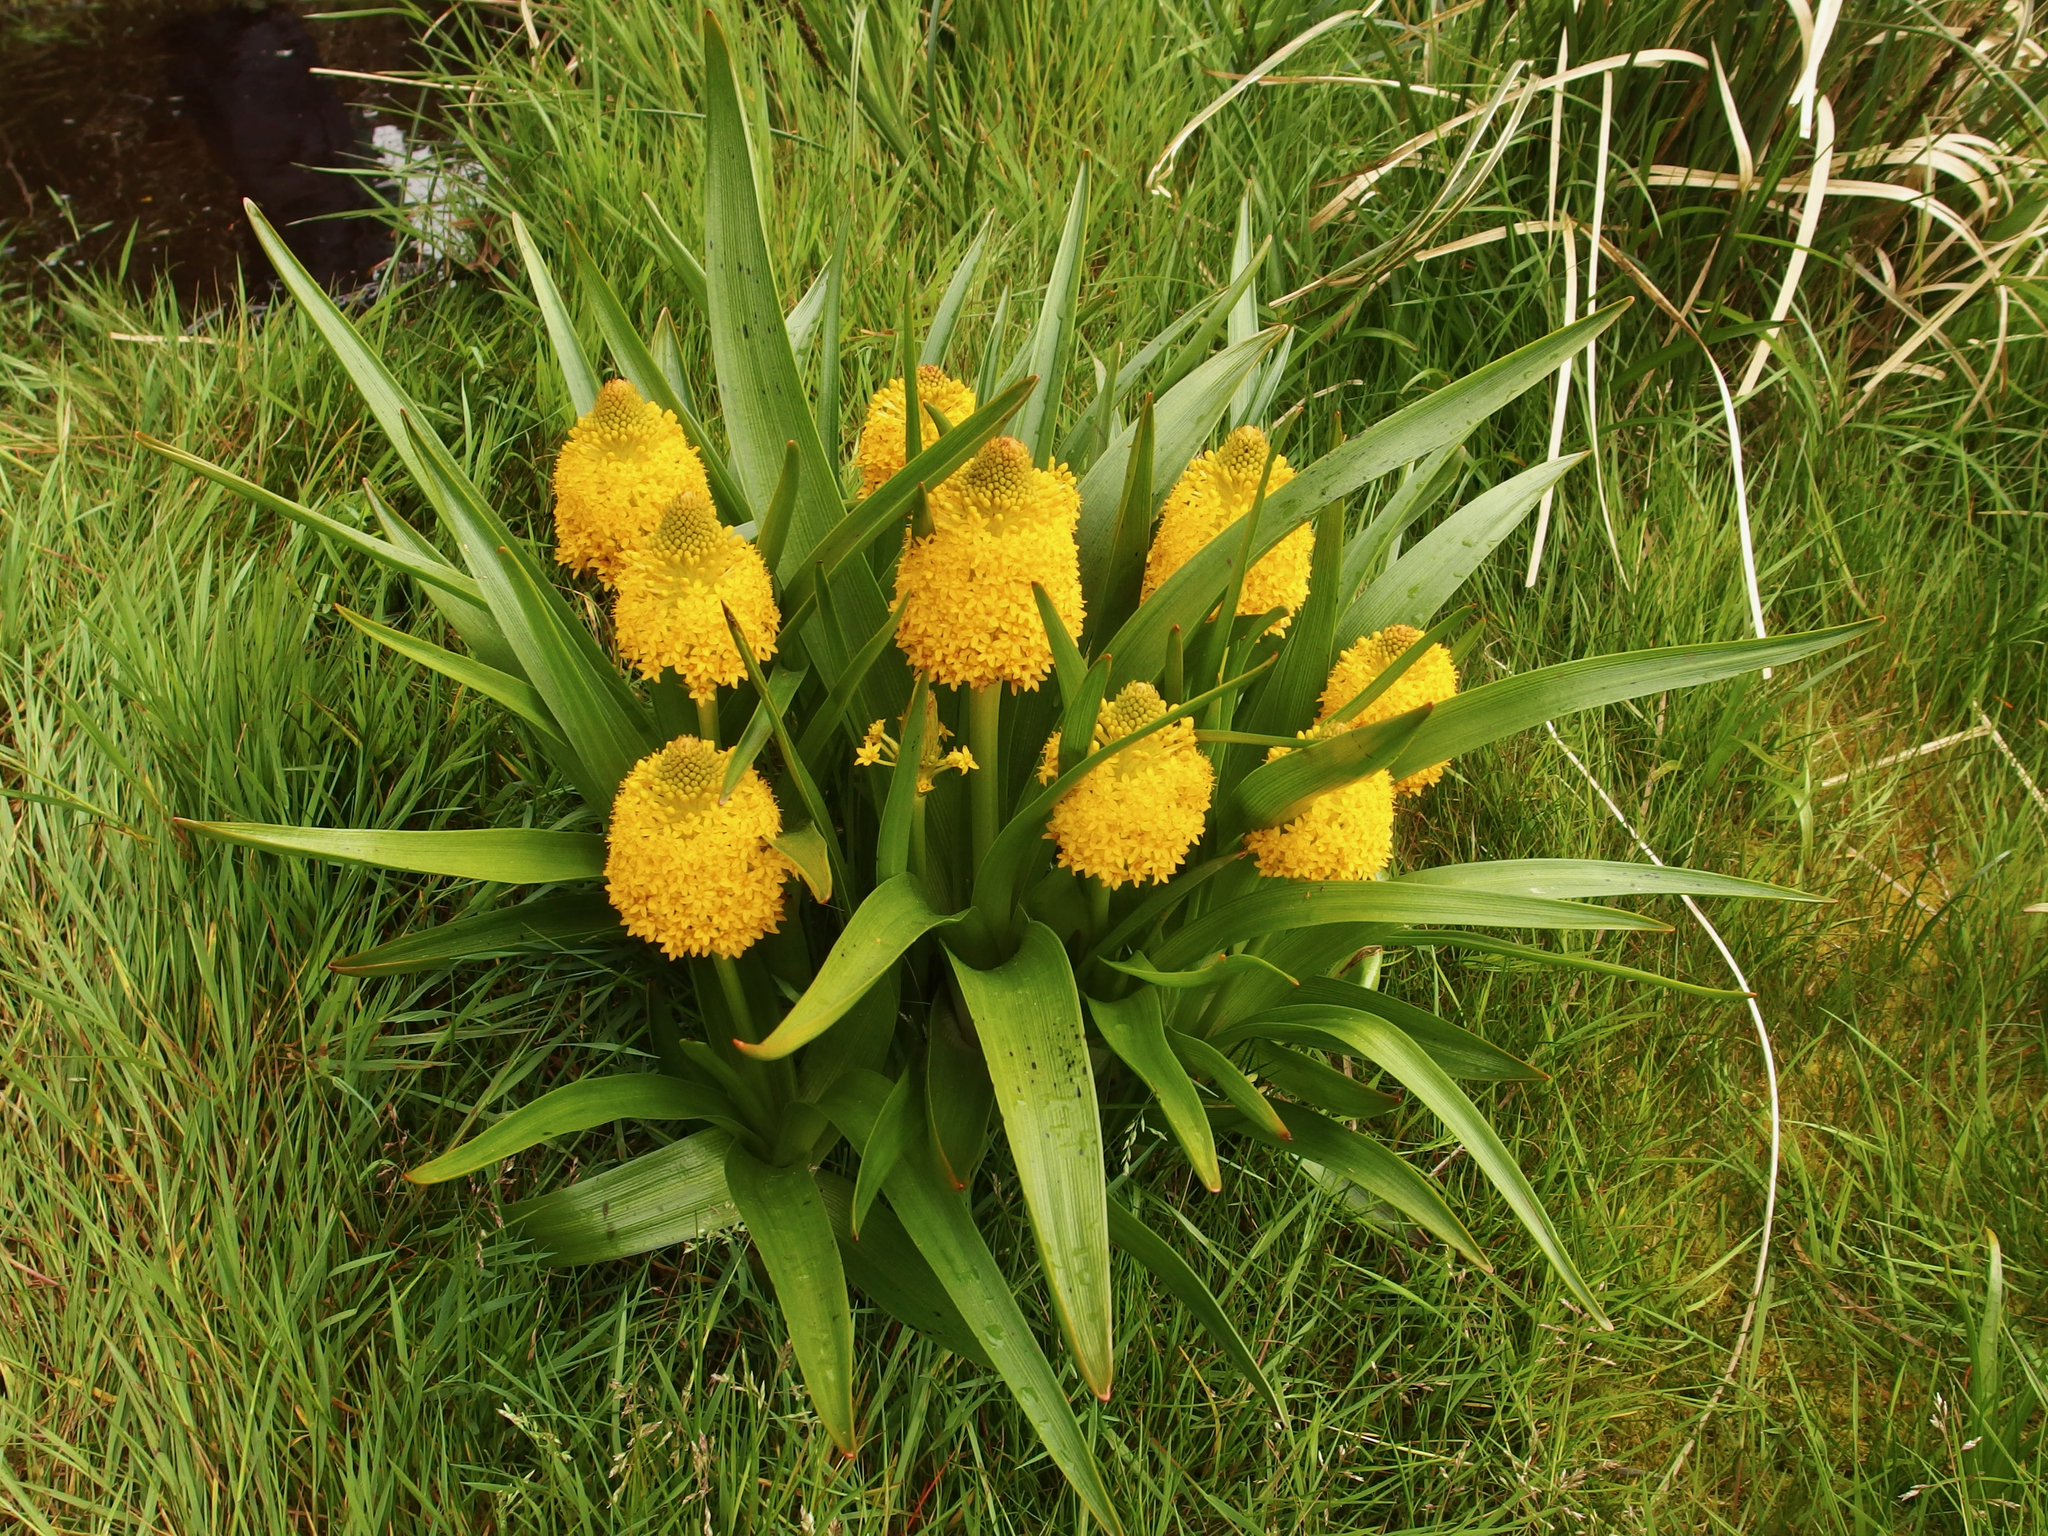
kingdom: Plantae
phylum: Tracheophyta
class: Liliopsida
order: Asparagales
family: Asphodelaceae
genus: Bulbinella
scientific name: Bulbinella rossii
